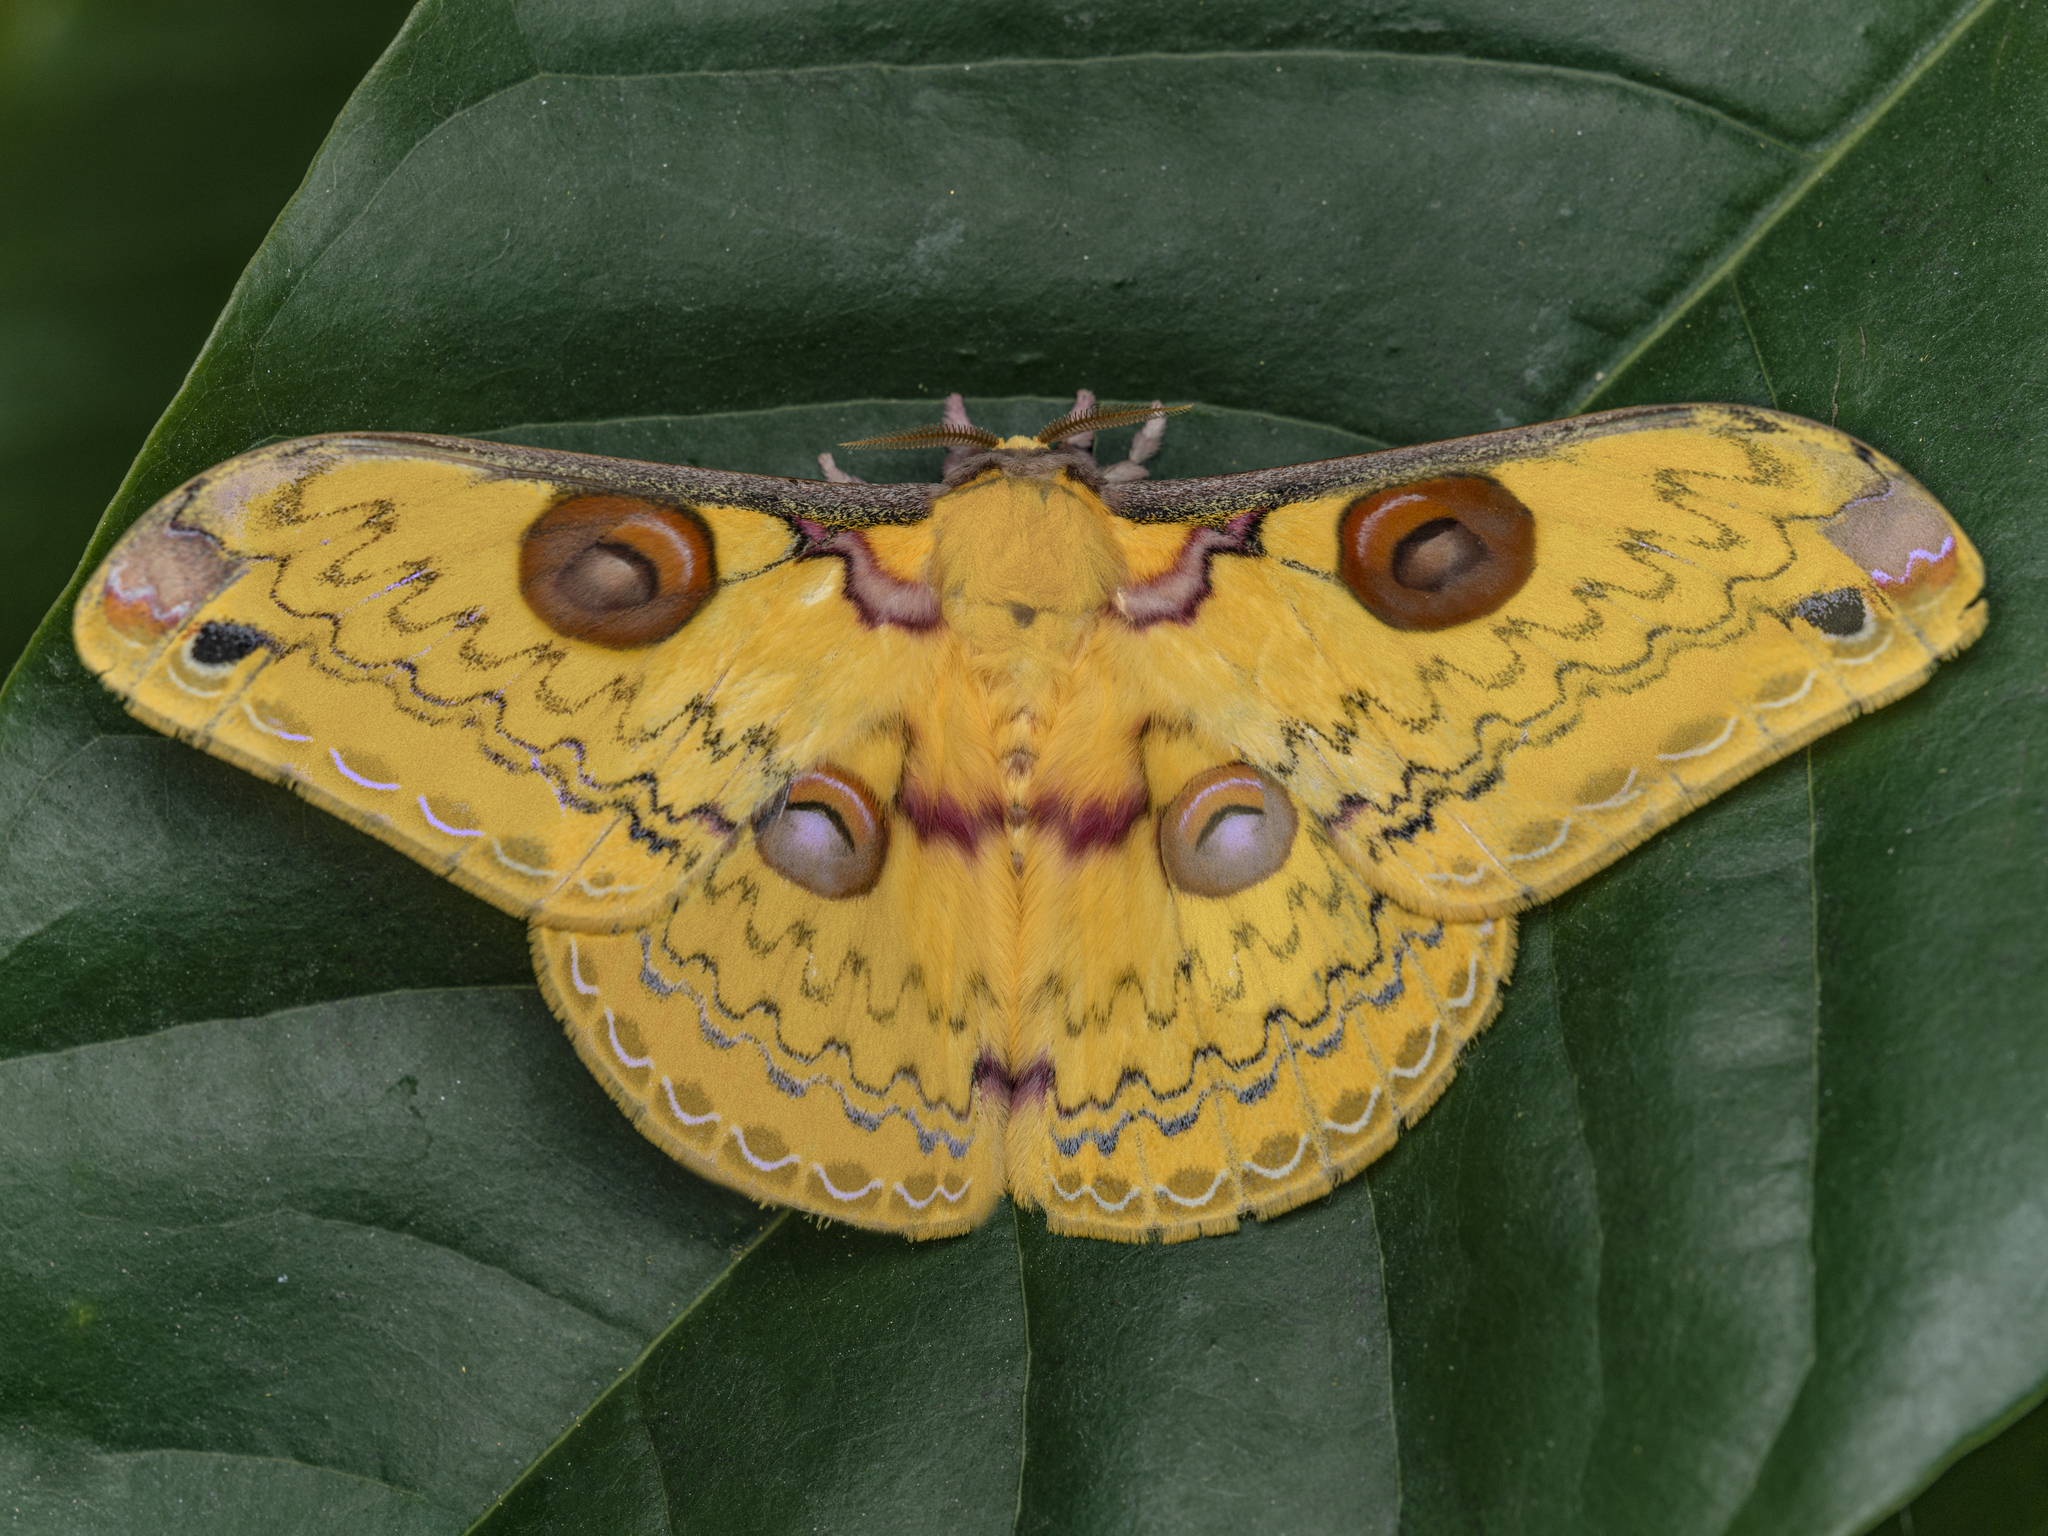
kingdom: Animalia
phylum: Arthropoda
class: Insecta
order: Lepidoptera
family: Saturniidae
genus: Loepa
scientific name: Loepa sikkima
